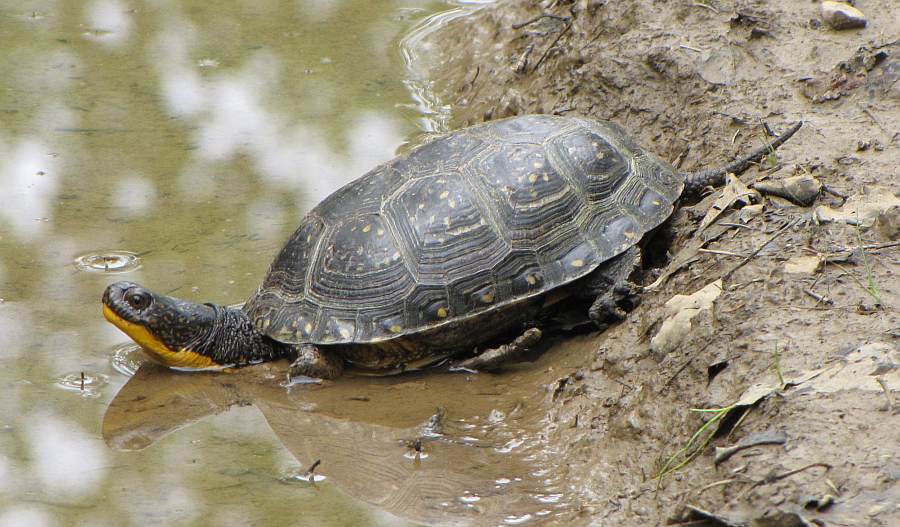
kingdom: Animalia
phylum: Chordata
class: Testudines
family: Emydidae
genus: Emys
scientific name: Emys blandingii
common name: Blanding's turtle
